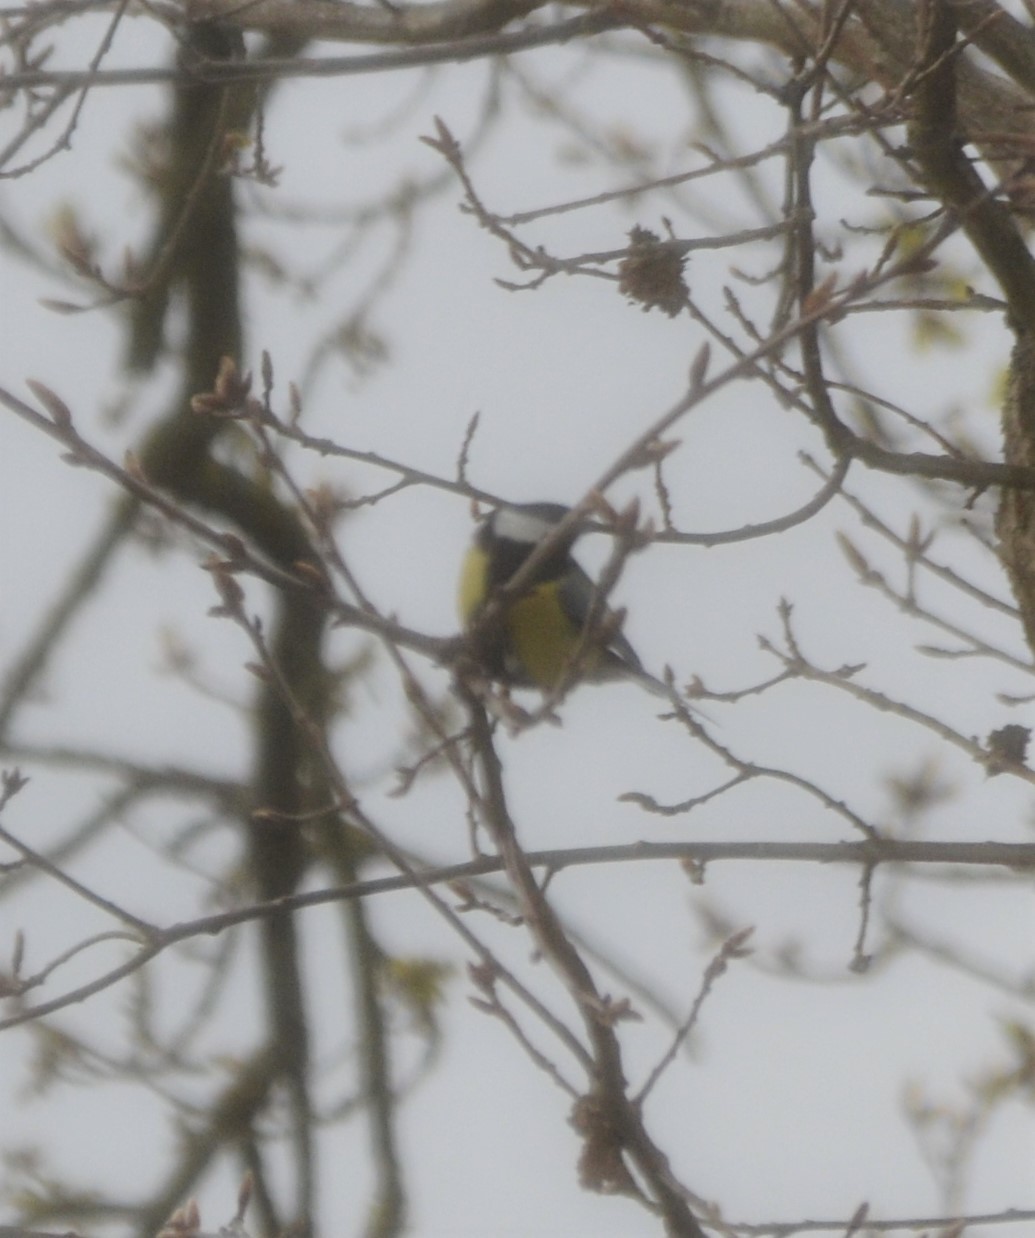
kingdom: Animalia
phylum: Chordata
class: Aves
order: Passeriformes
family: Paridae
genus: Parus
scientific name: Parus major
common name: Great tit
